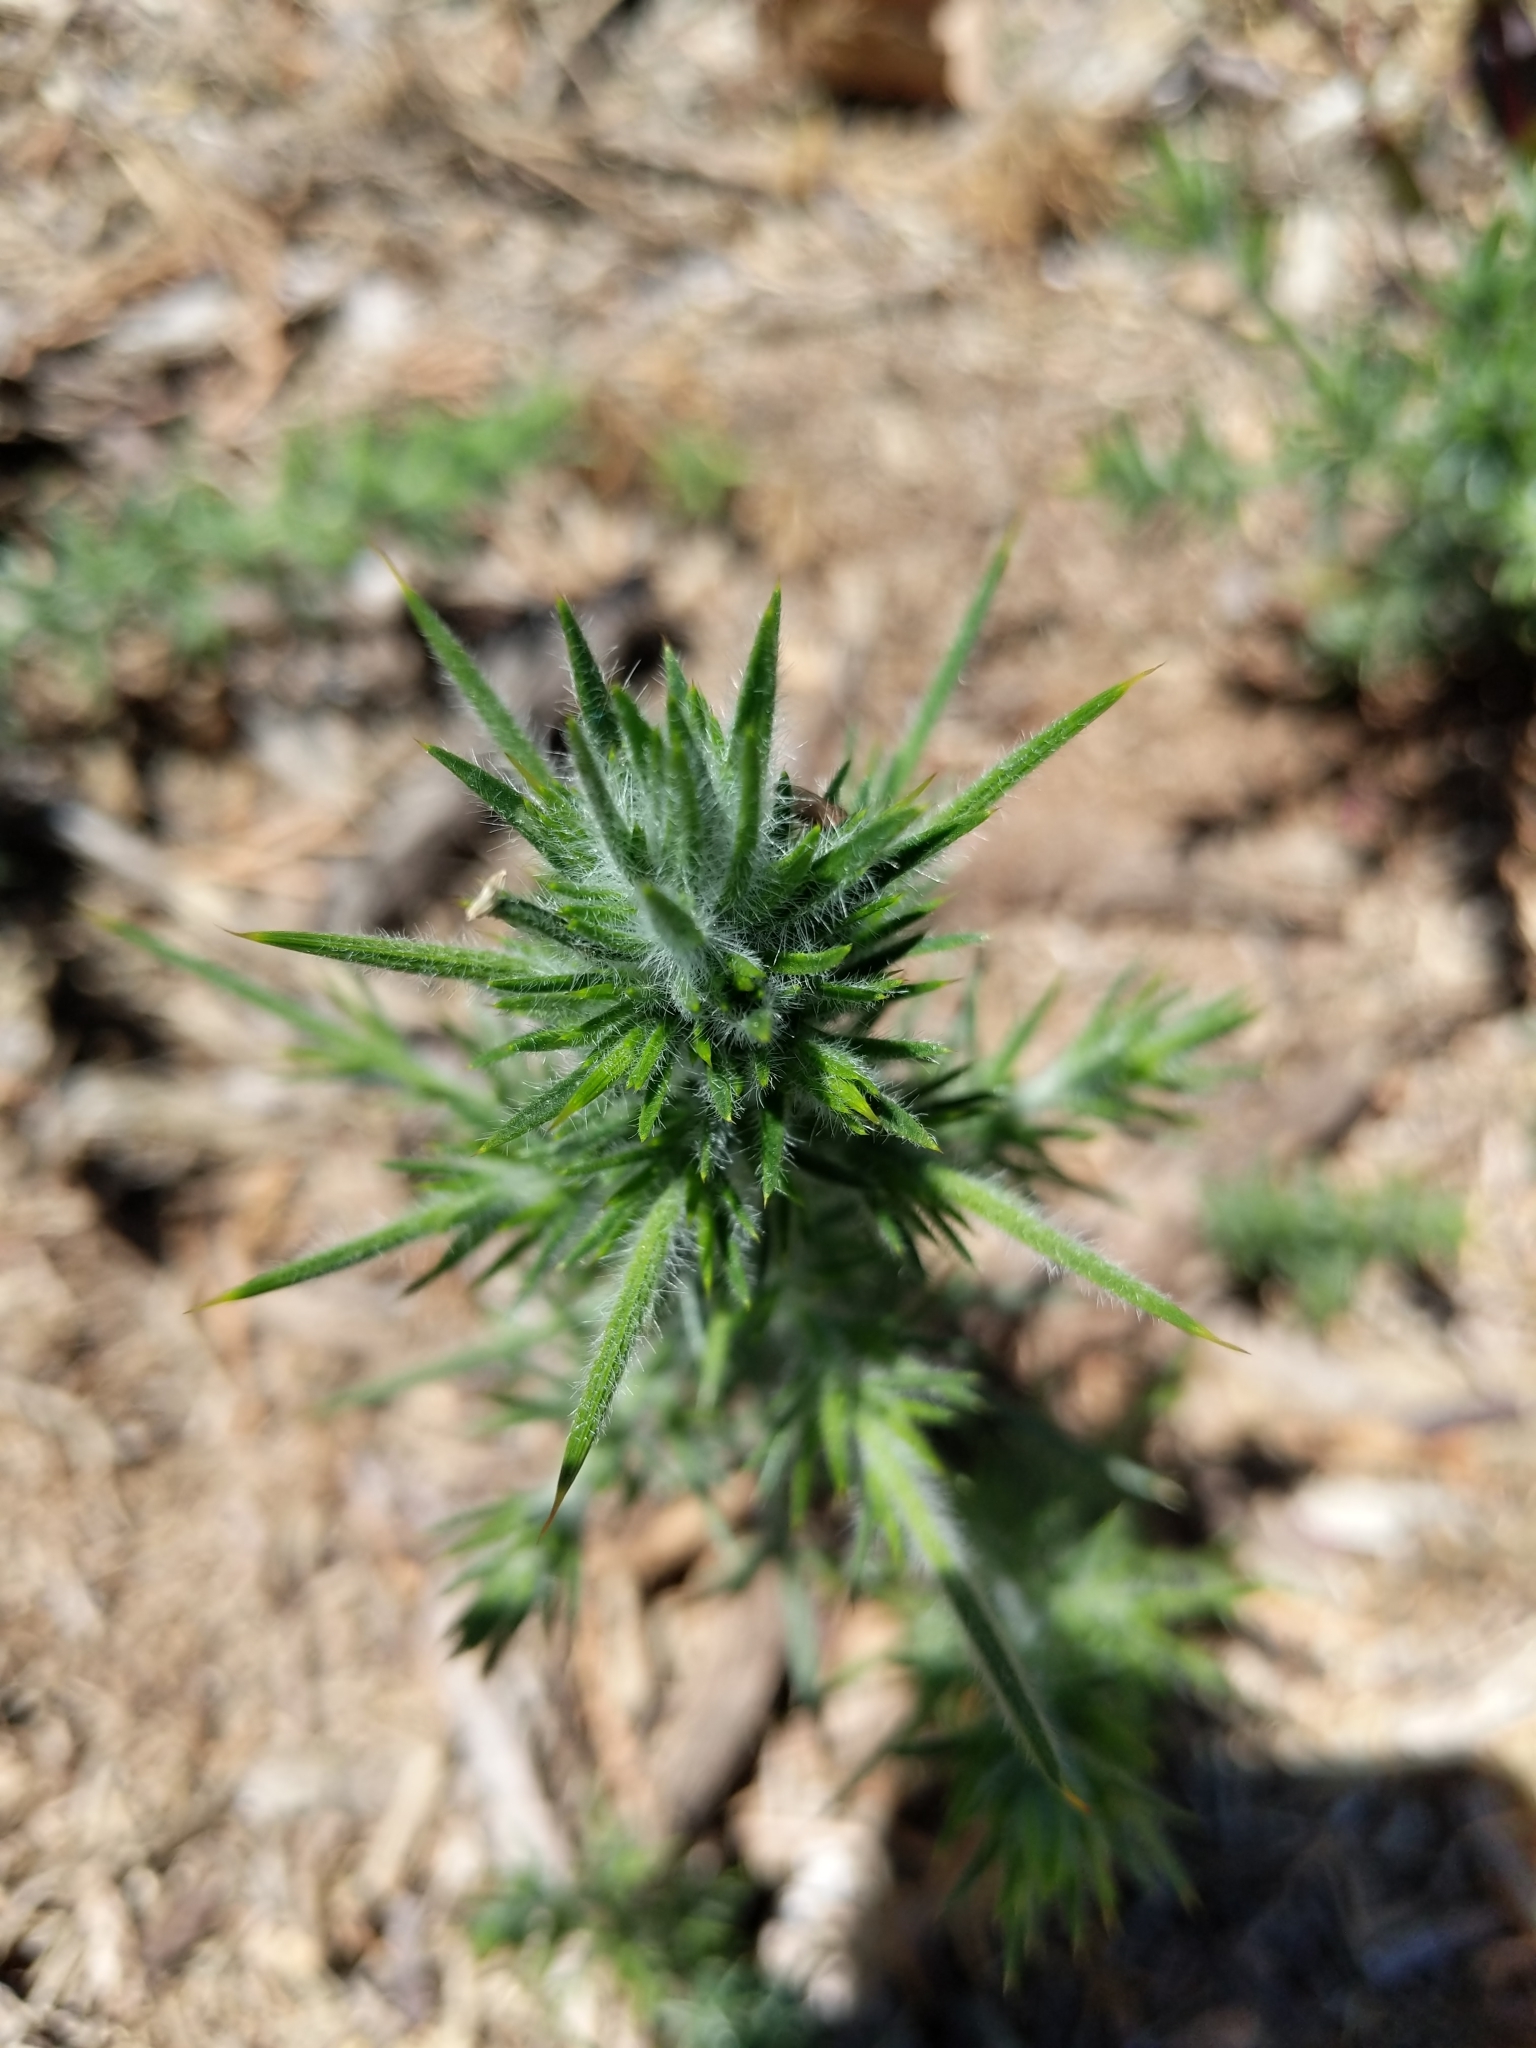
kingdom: Plantae
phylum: Tracheophyta
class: Magnoliopsida
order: Fabales
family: Fabaceae
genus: Ulex
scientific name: Ulex europaeus
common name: Common gorse
